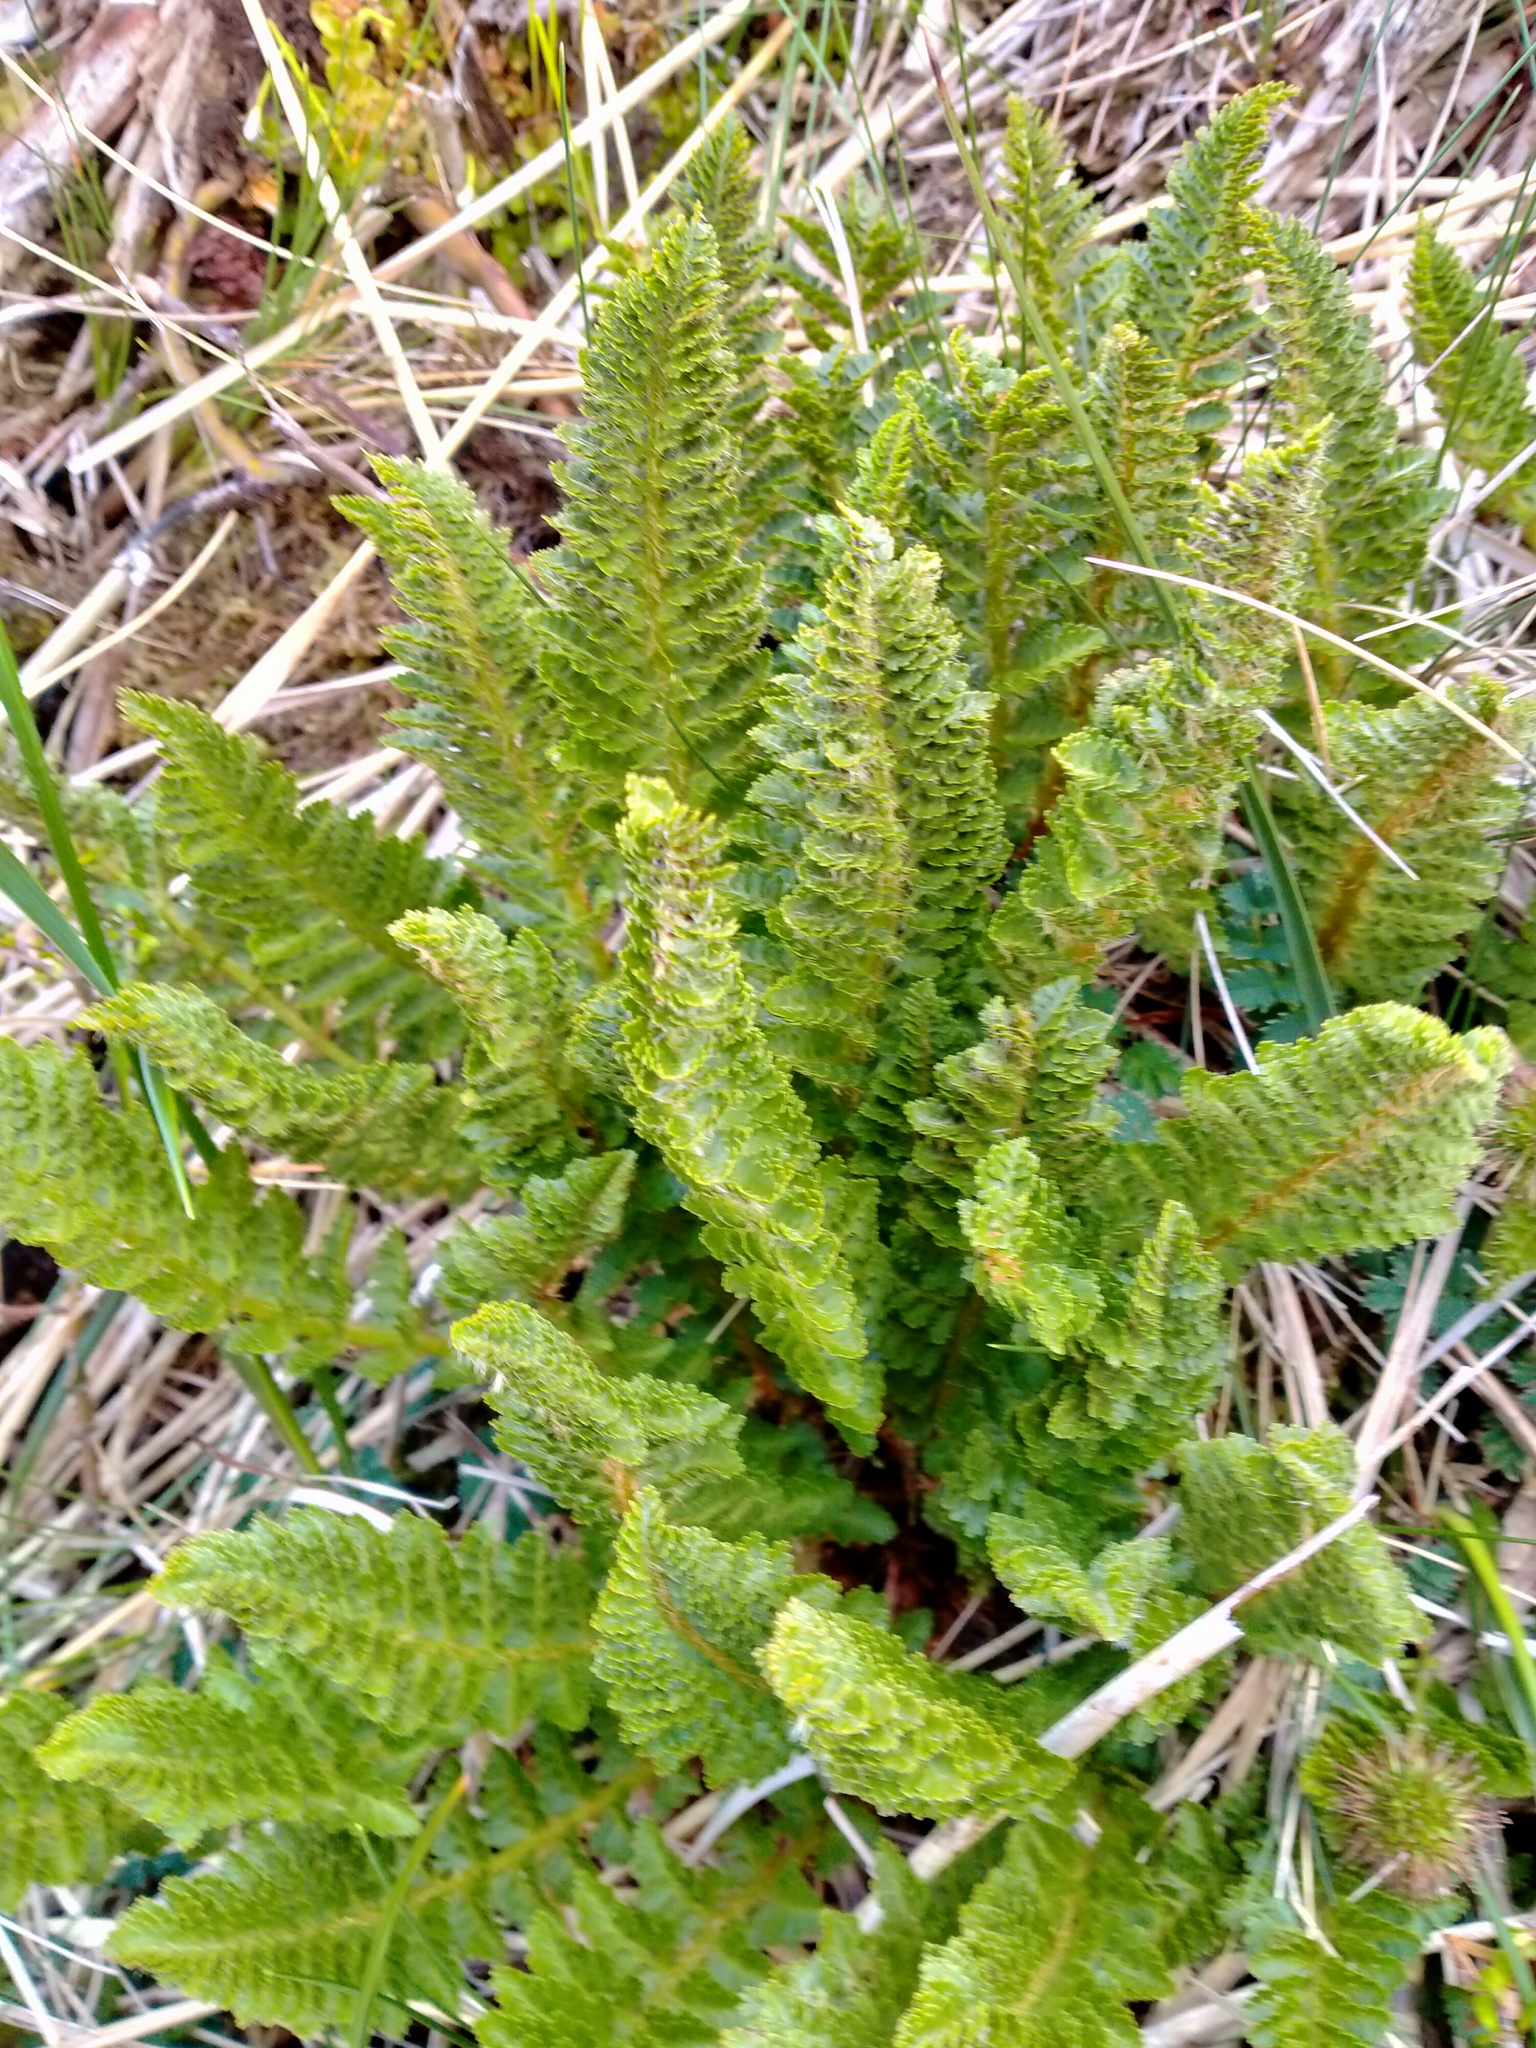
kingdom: Plantae
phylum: Tracheophyta
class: Polypodiopsida
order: Polypodiales
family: Dryopteridaceae
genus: Polystichum
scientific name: Polystichum cystostegia
